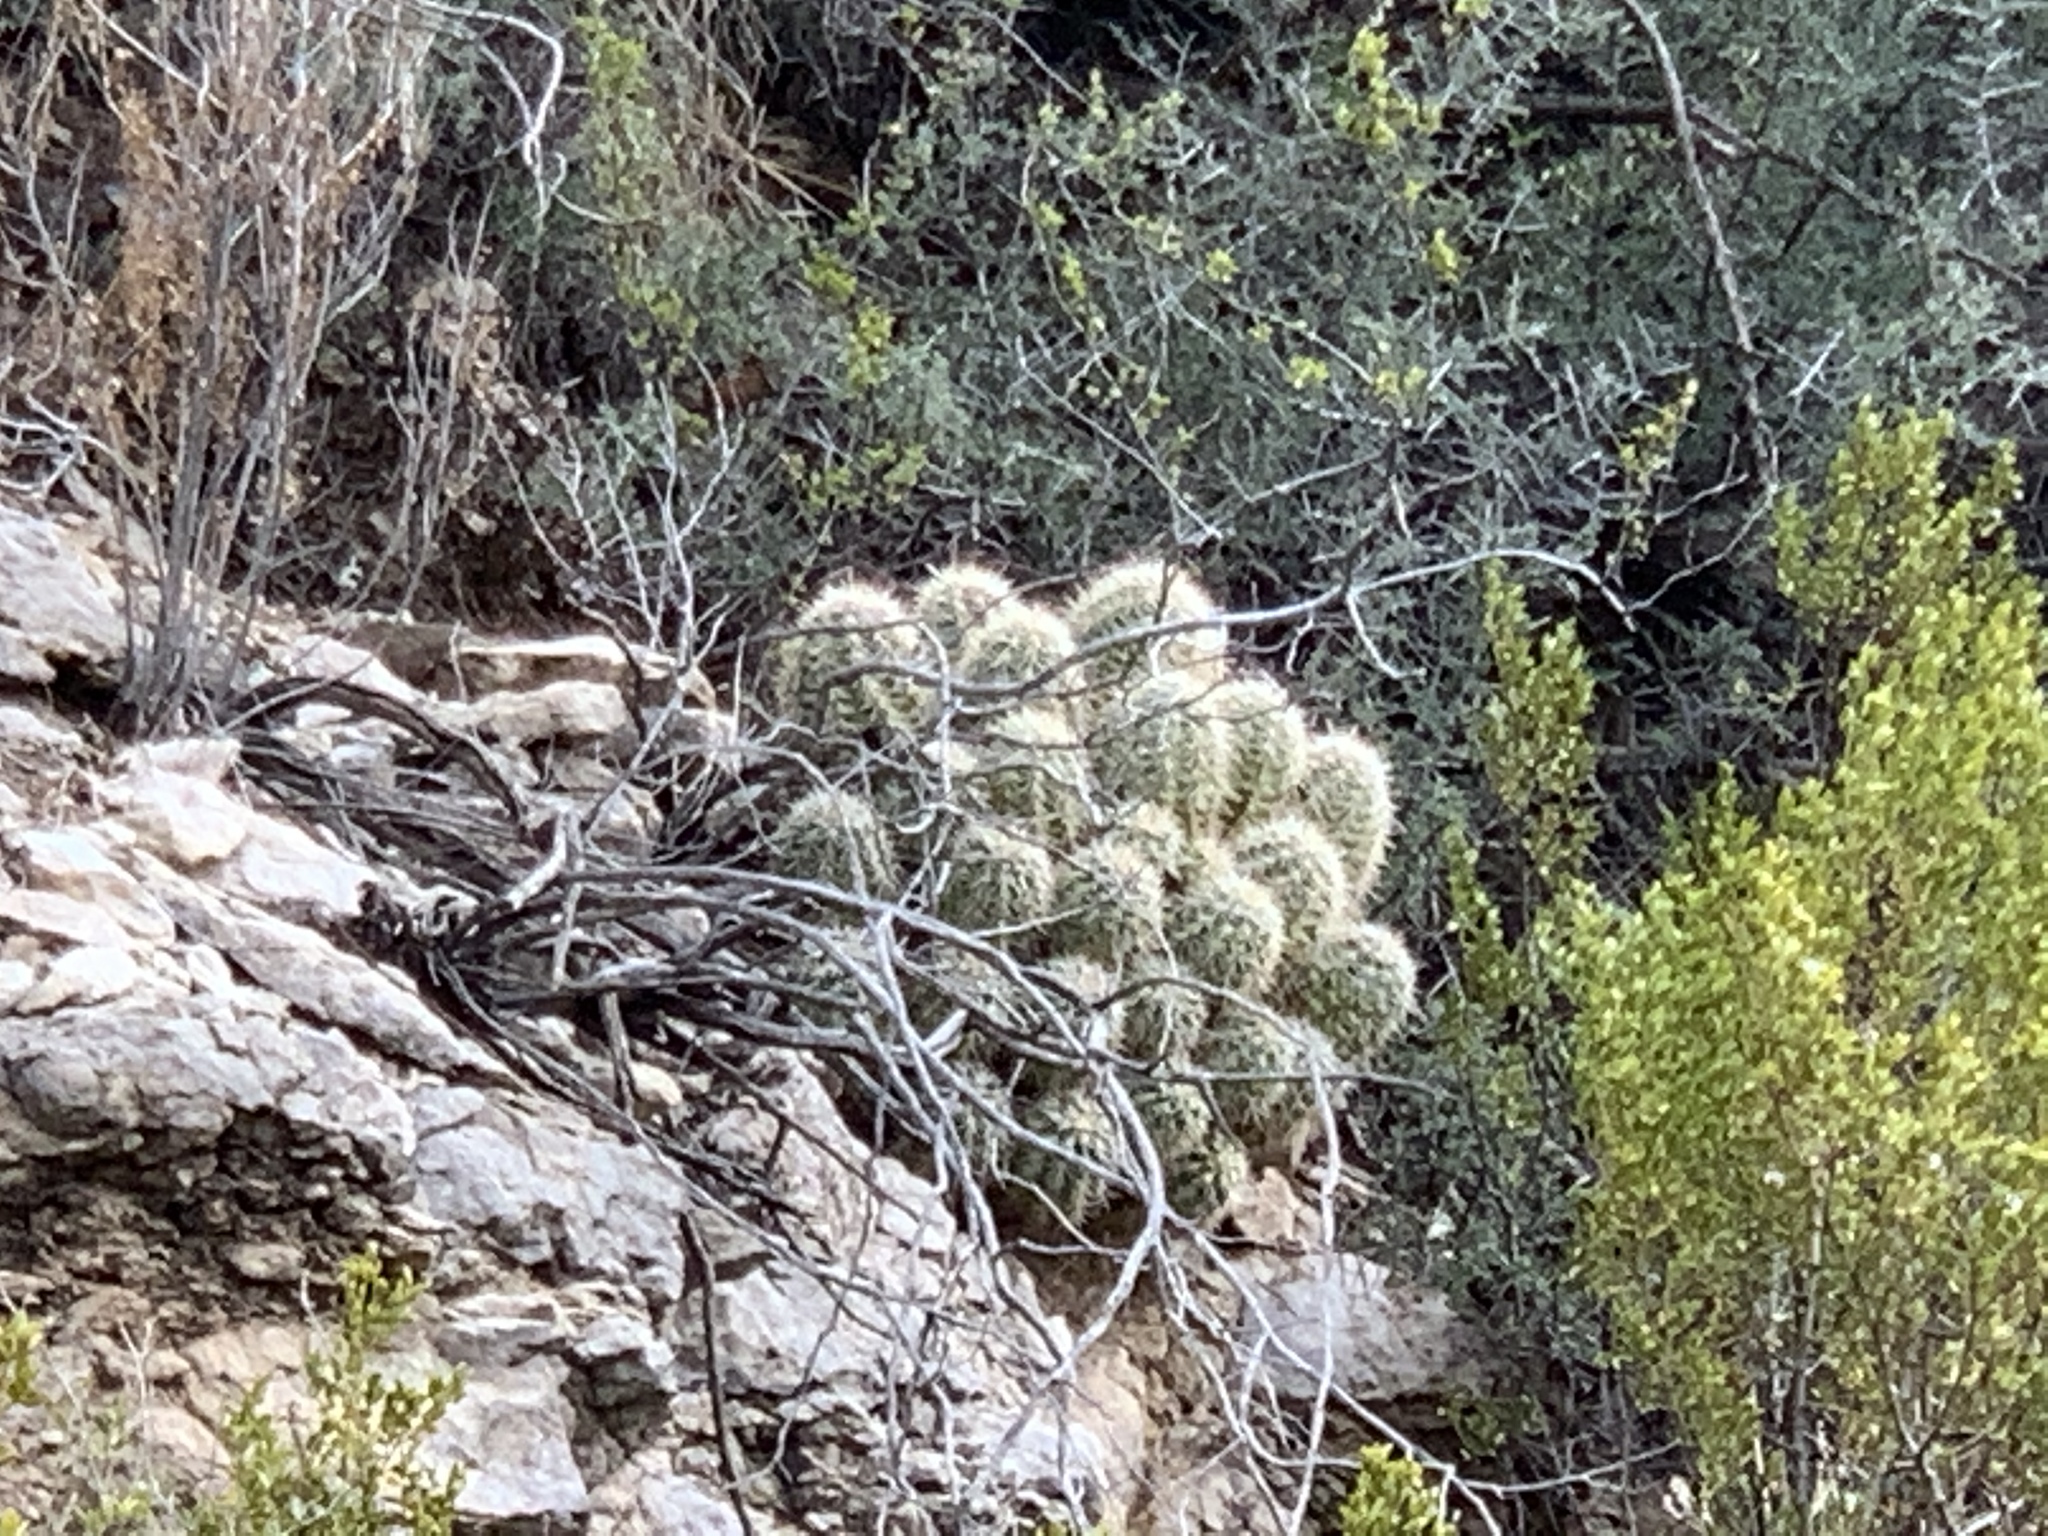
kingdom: Plantae
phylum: Tracheophyta
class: Magnoliopsida
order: Caryophyllales
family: Cactaceae
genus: Echinocereus
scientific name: Echinocereus coccineus
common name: Scarlet hedgehog cactus
